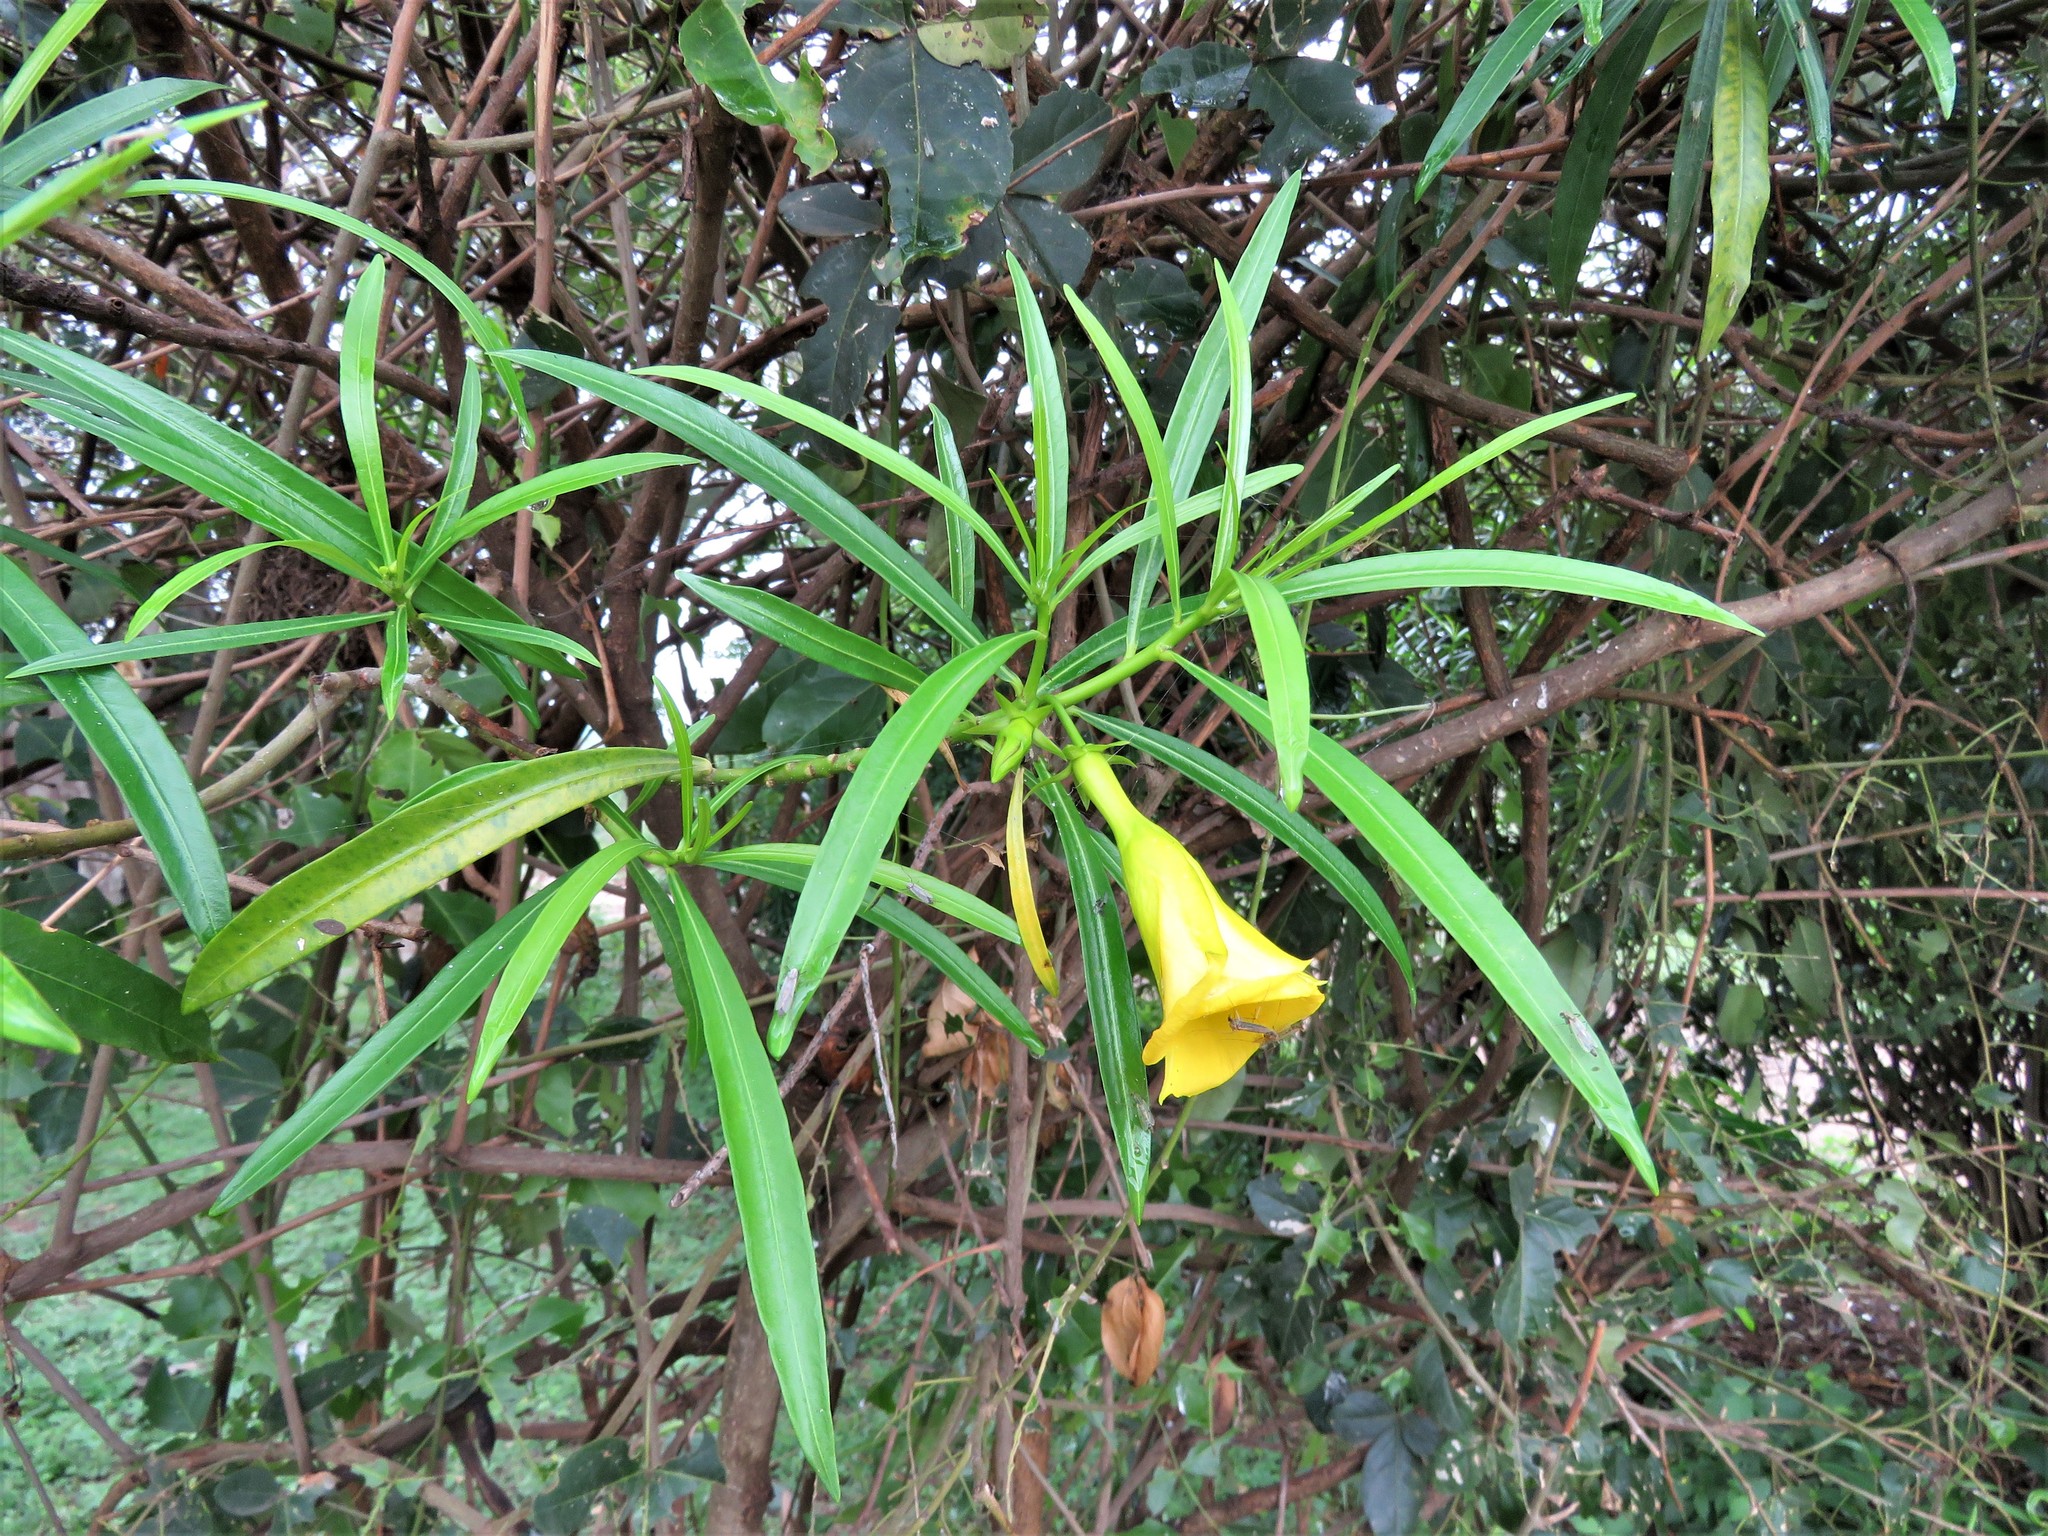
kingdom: Plantae
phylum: Tracheophyta
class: Magnoliopsida
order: Gentianales
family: Apocynaceae
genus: Cascabela
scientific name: Cascabela thevetia
